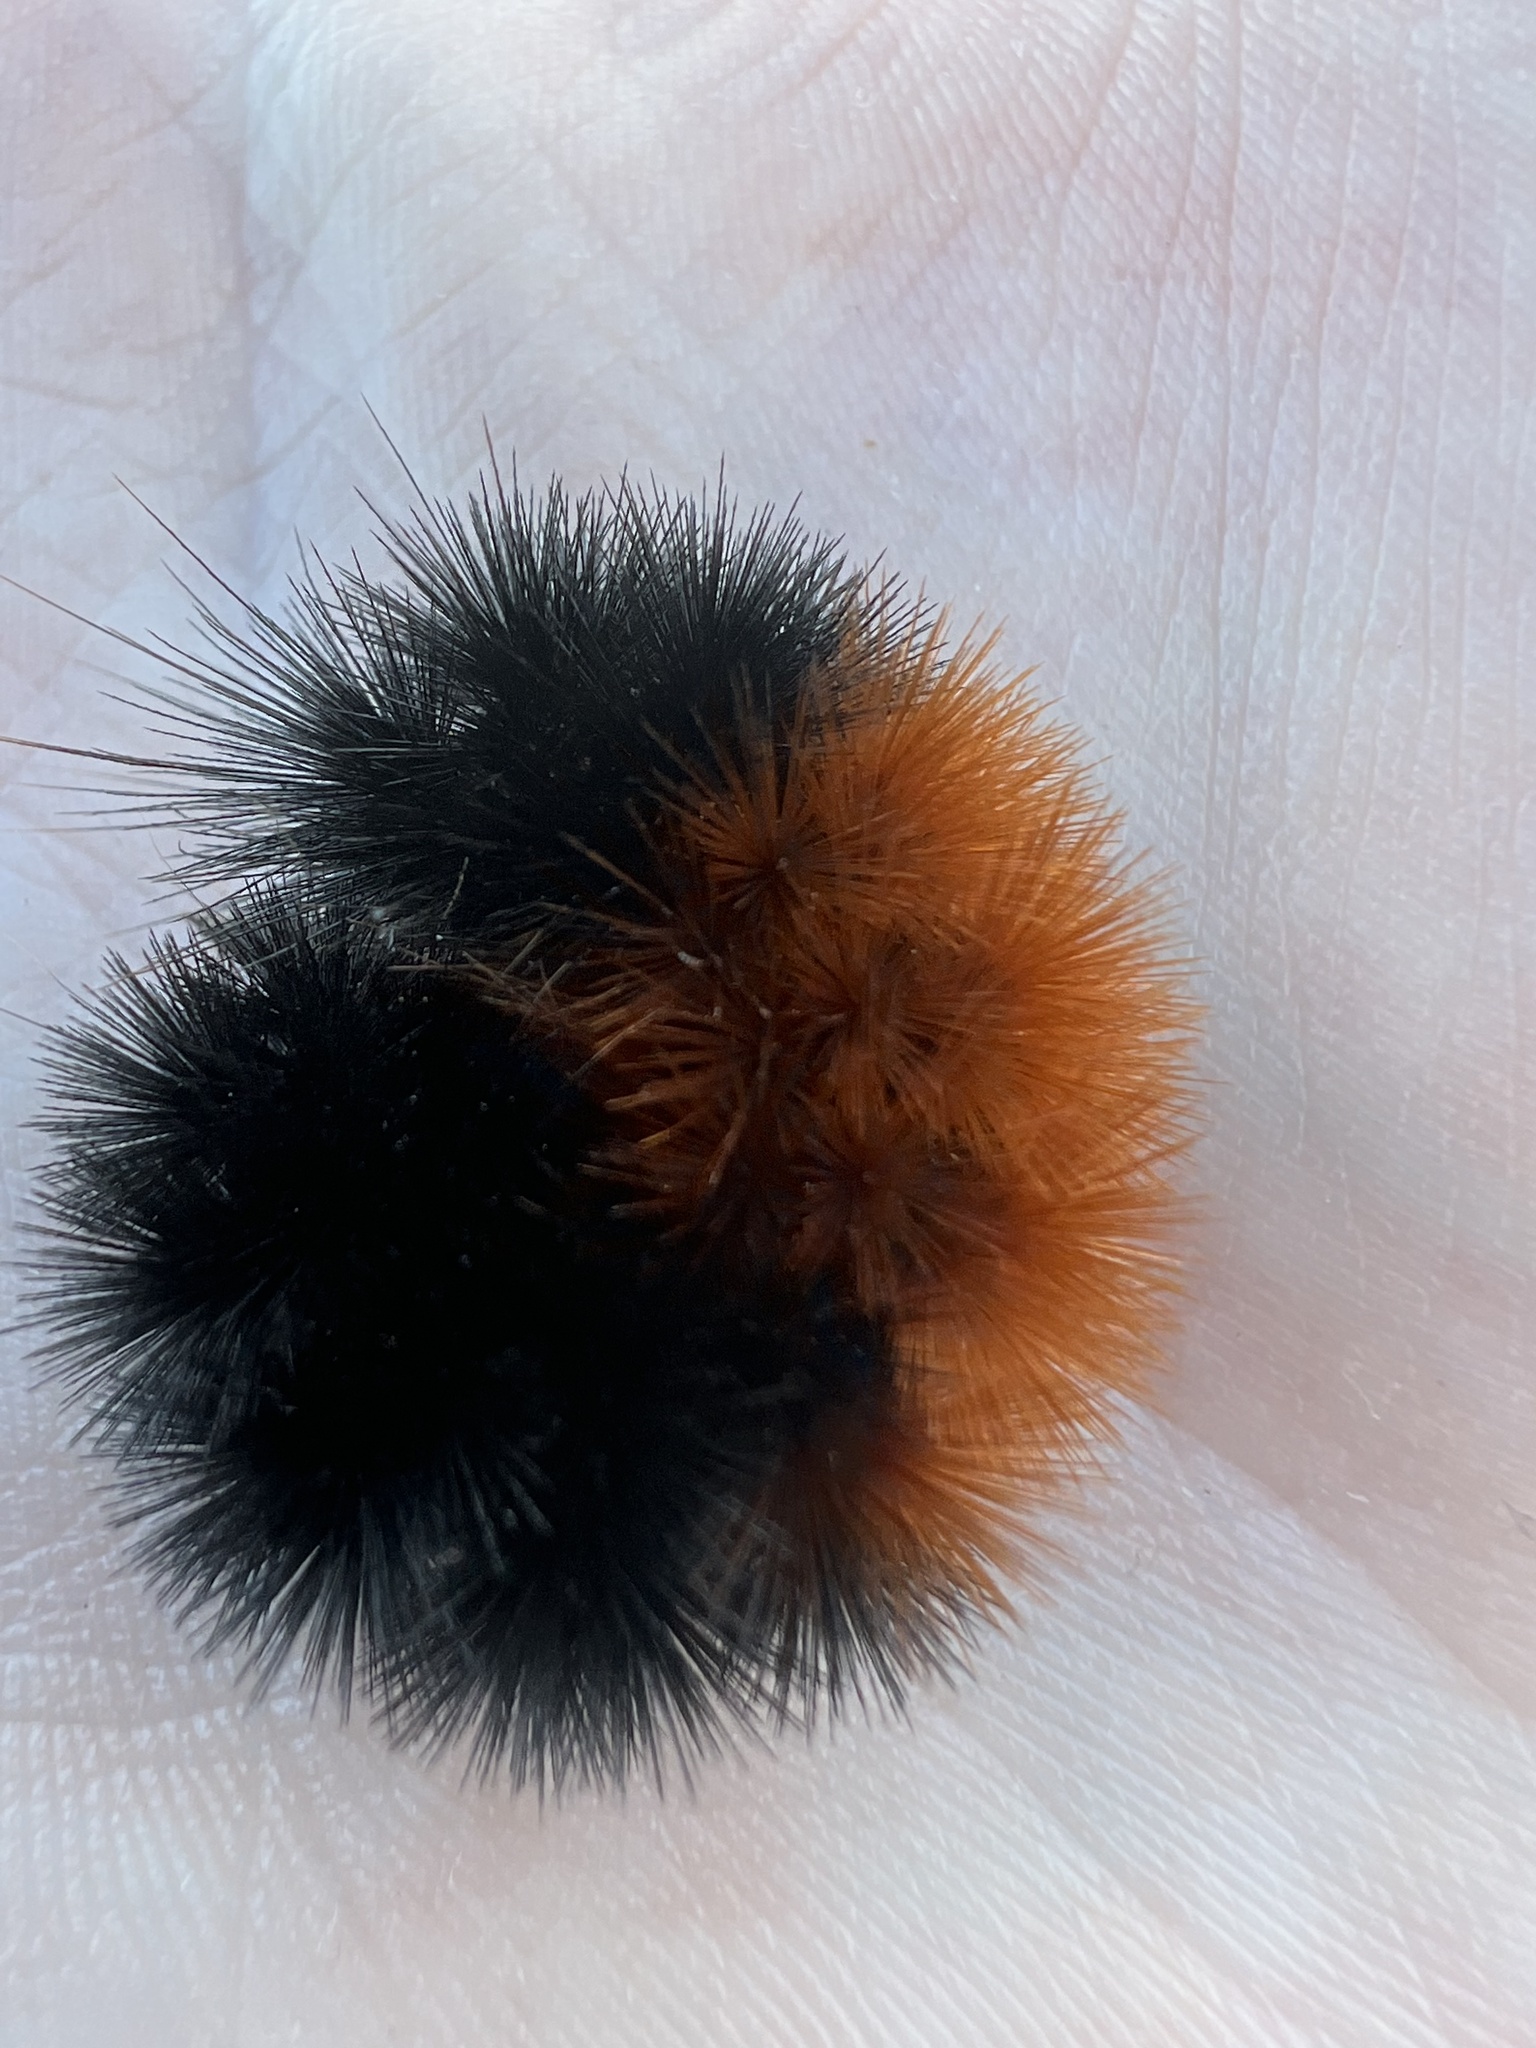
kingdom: Animalia
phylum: Arthropoda
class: Insecta
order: Lepidoptera
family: Erebidae
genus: Pyrrharctia
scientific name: Pyrrharctia isabella
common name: Isabella tiger moth
